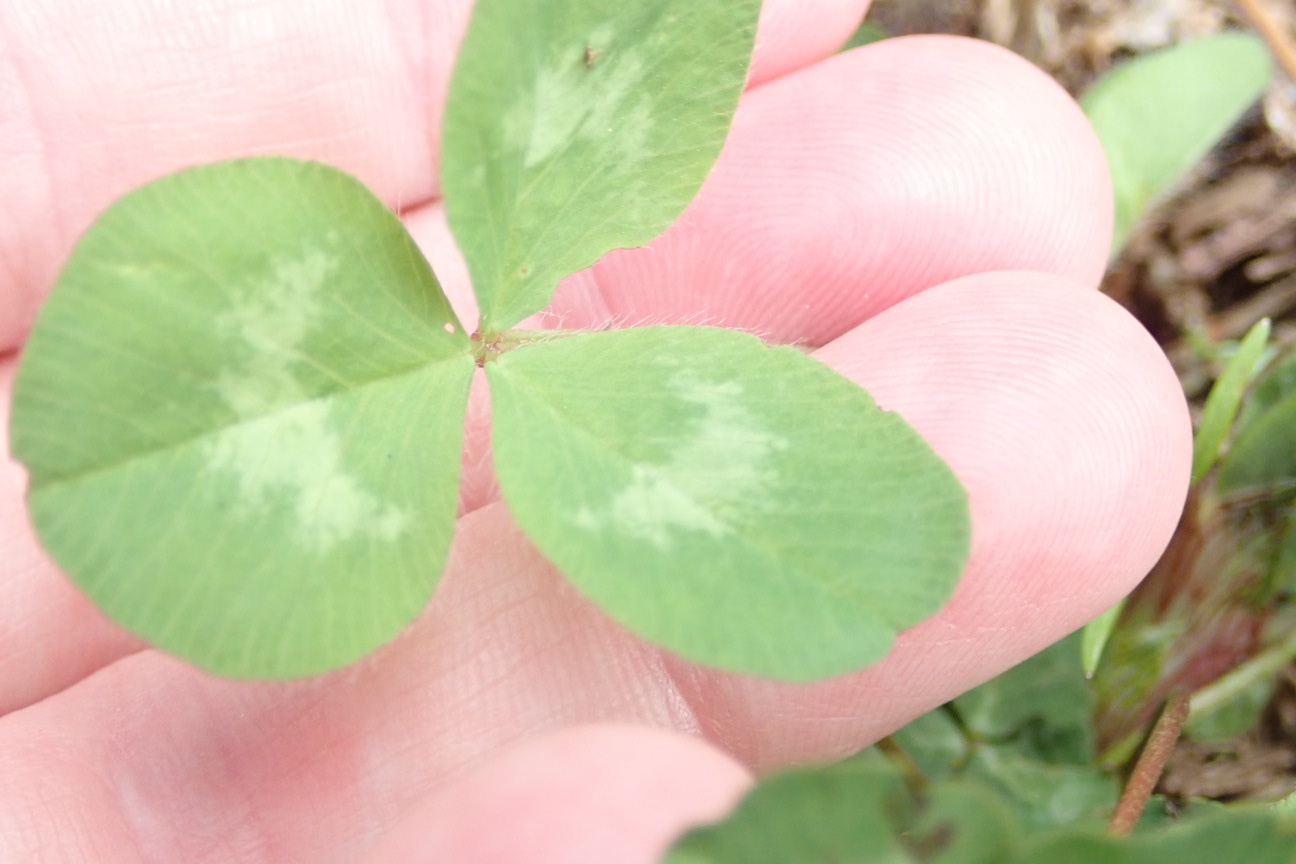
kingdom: Plantae
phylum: Tracheophyta
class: Magnoliopsida
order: Fabales
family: Fabaceae
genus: Trifolium
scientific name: Trifolium pratense
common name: Red clover
